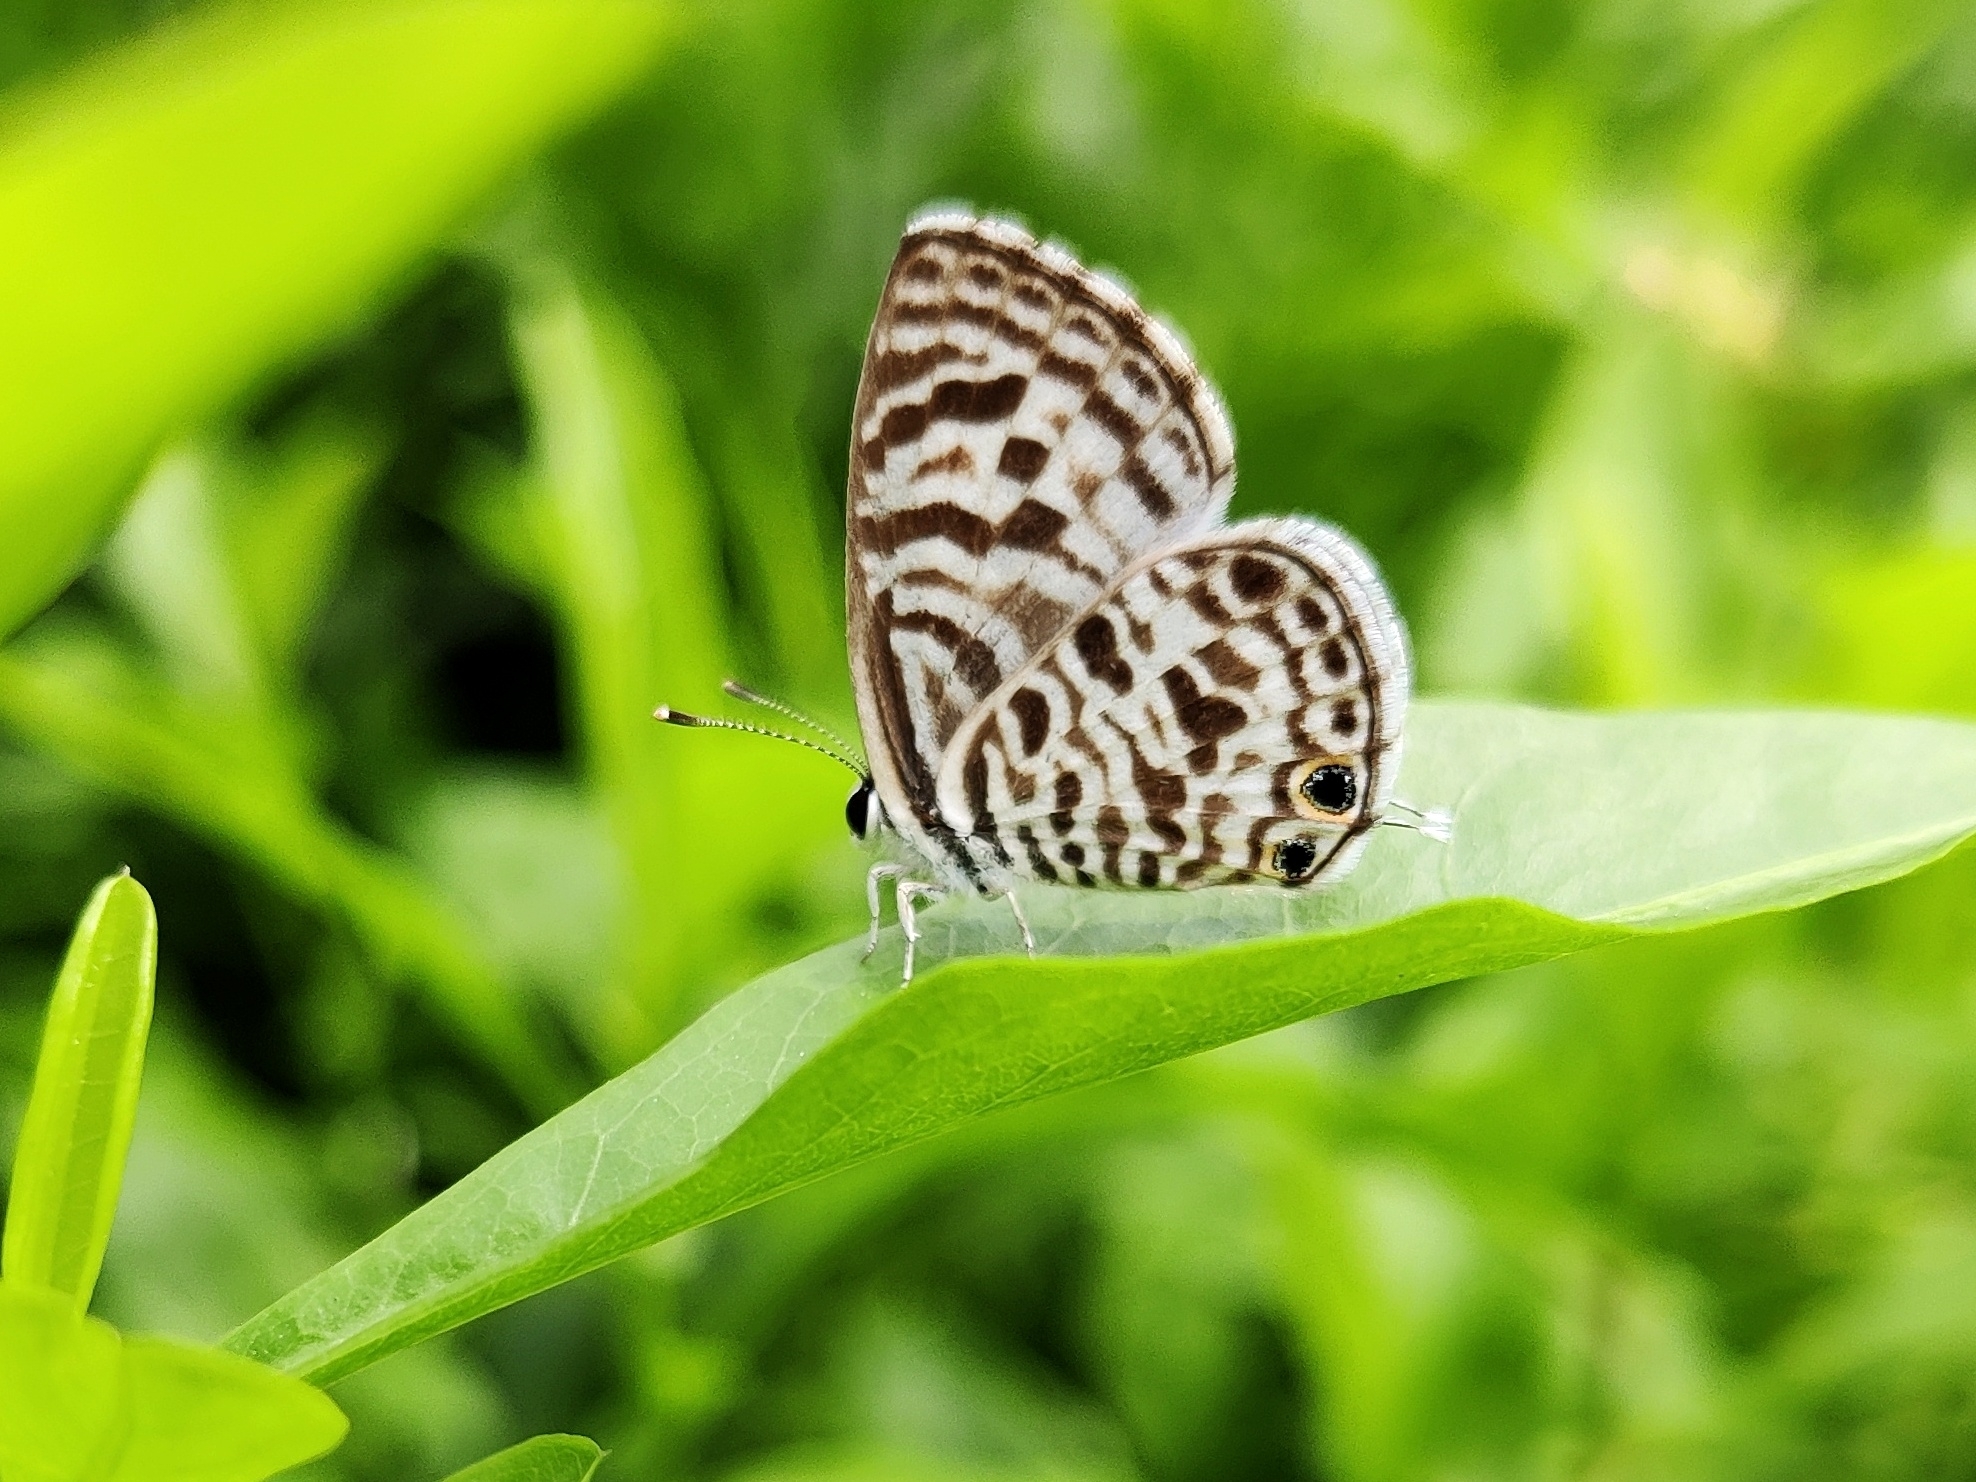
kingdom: Animalia
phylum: Arthropoda
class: Insecta
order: Lepidoptera
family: Lycaenidae
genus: Leptotes
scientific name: Leptotes plinius
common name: Zebra blue
